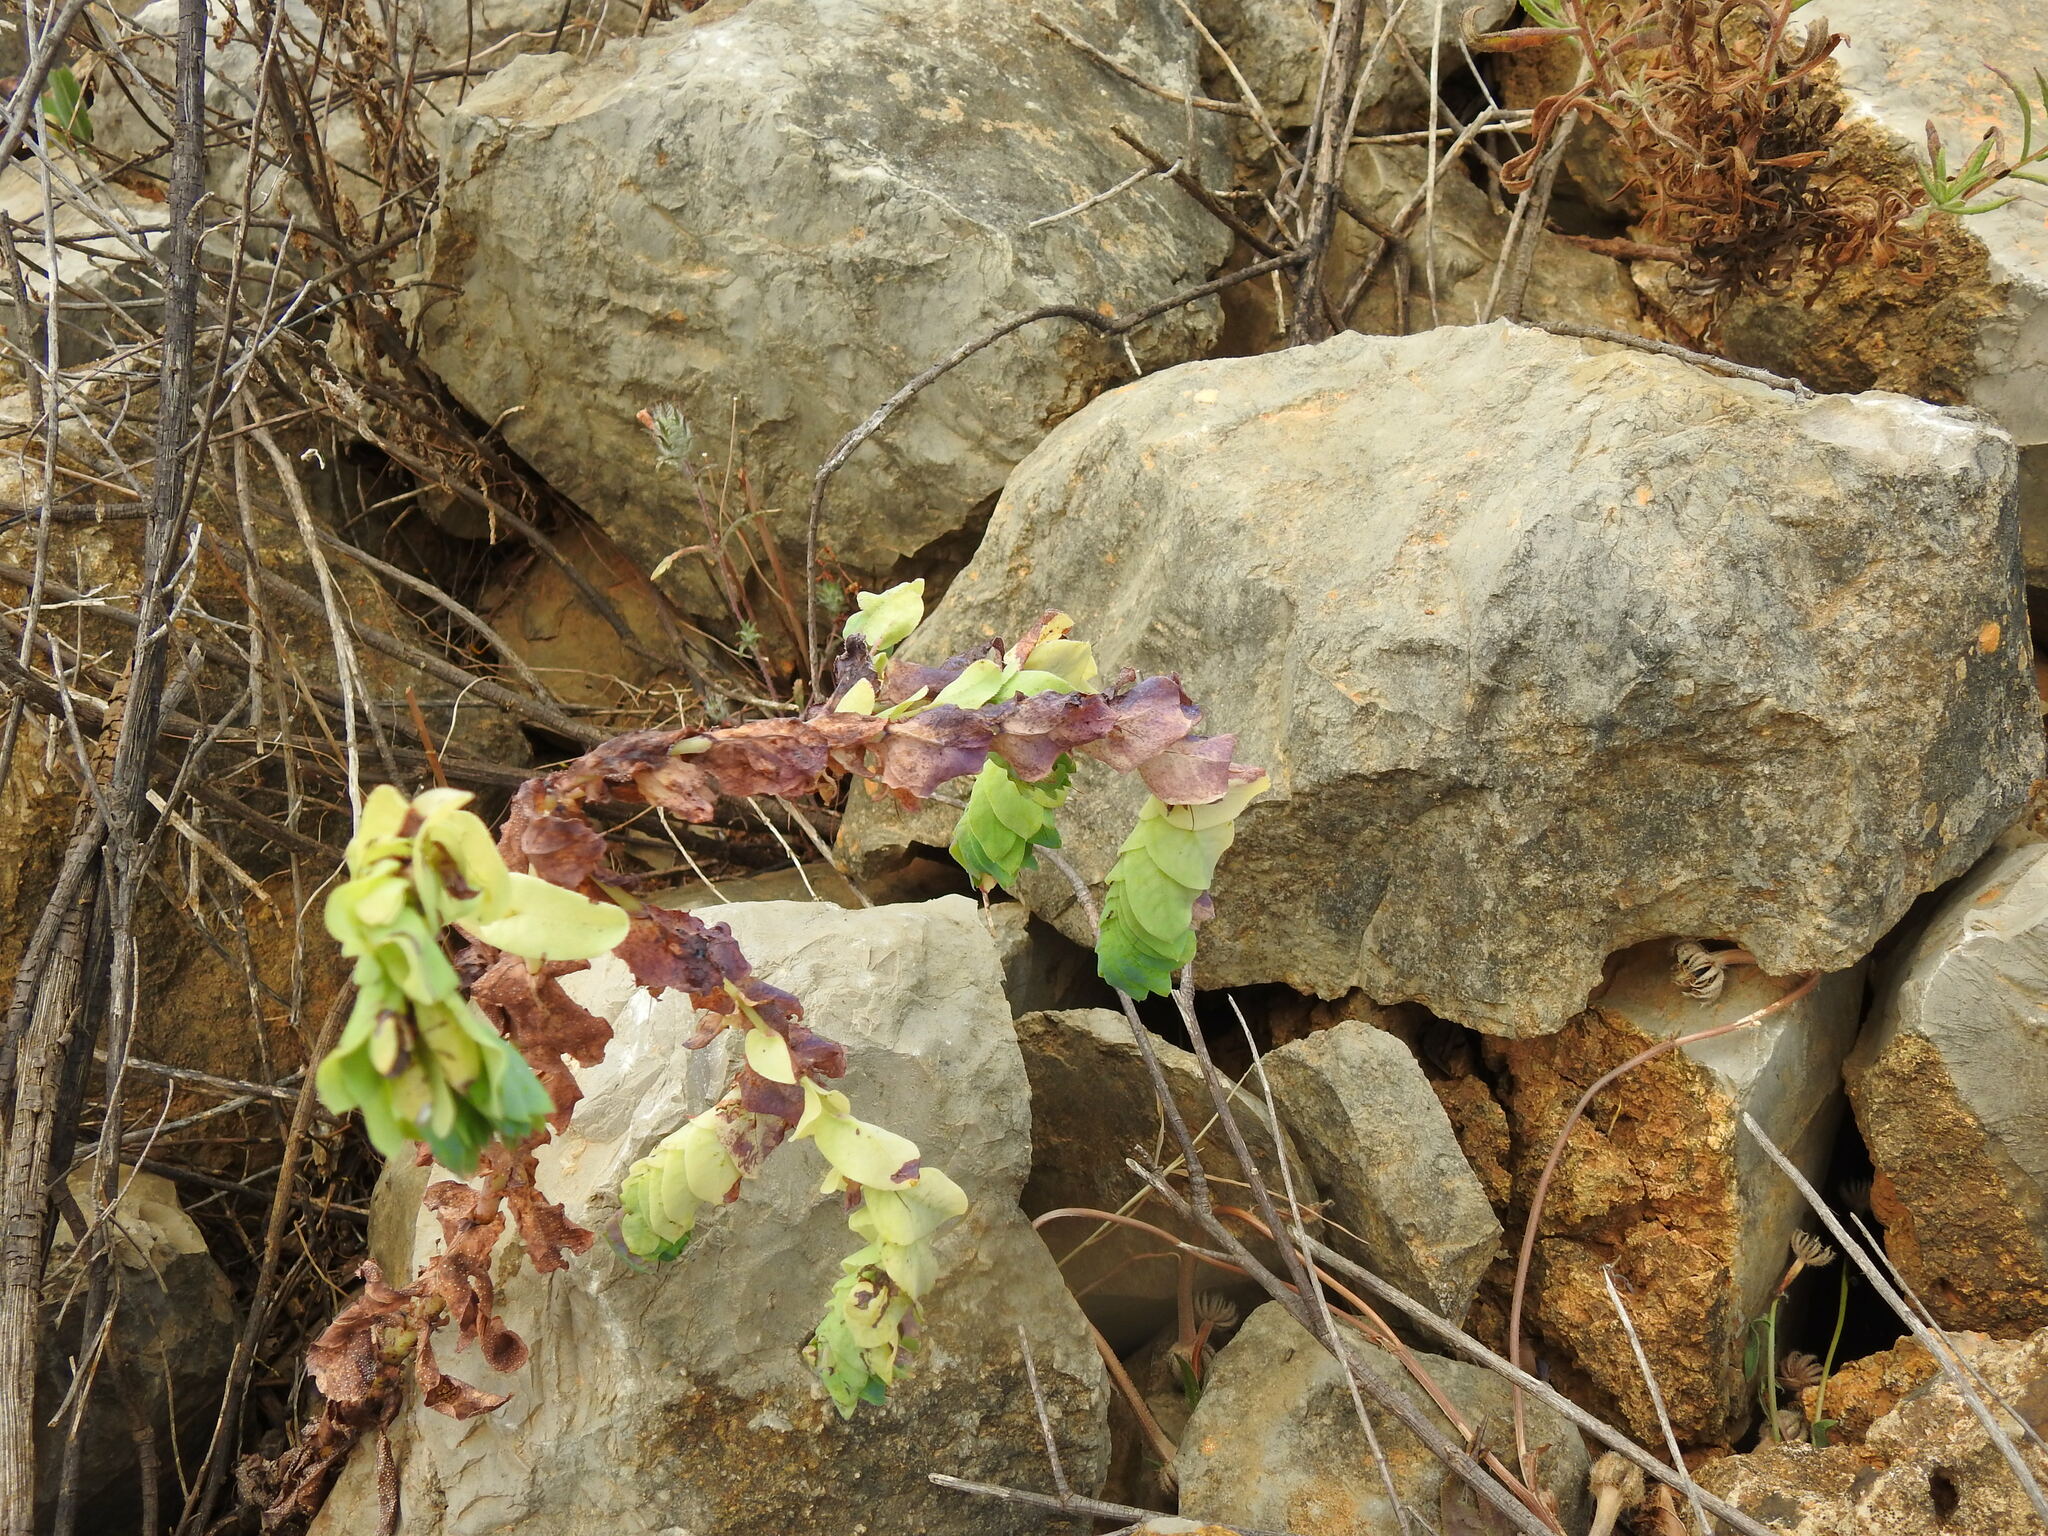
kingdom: Plantae
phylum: Tracheophyta
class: Magnoliopsida
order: Boraginales
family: Boraginaceae
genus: Cerinthe
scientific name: Cerinthe major
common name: Greater honeywort
